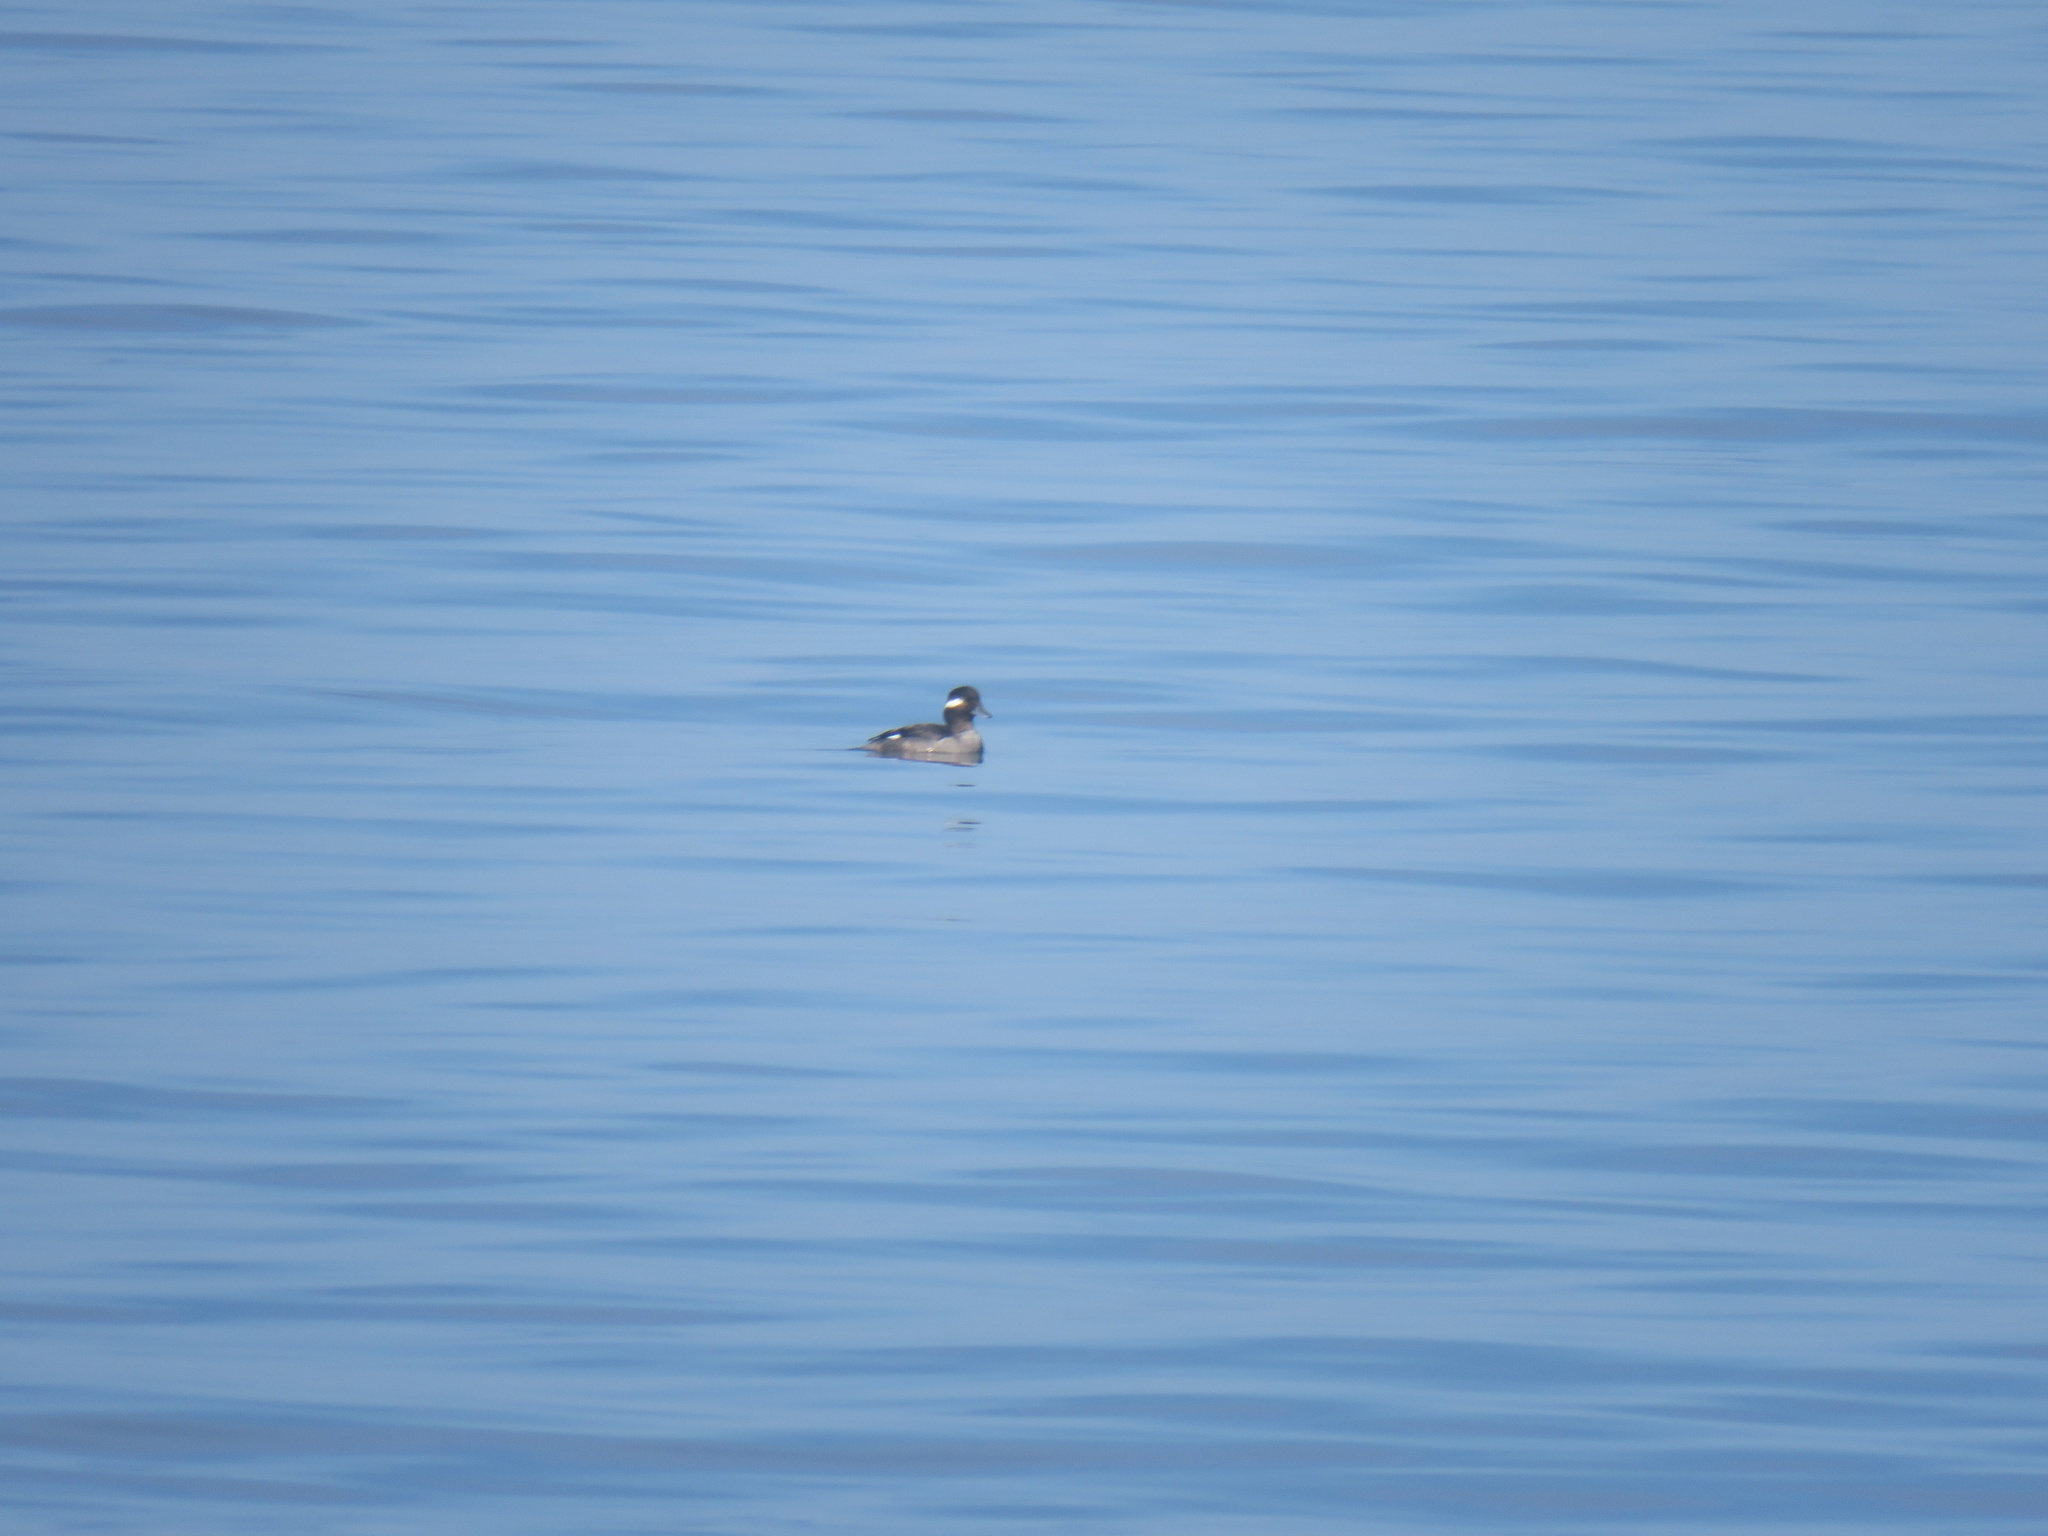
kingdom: Animalia
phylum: Chordata
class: Aves
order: Anseriformes
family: Anatidae
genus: Bucephala
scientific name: Bucephala albeola
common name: Bufflehead
